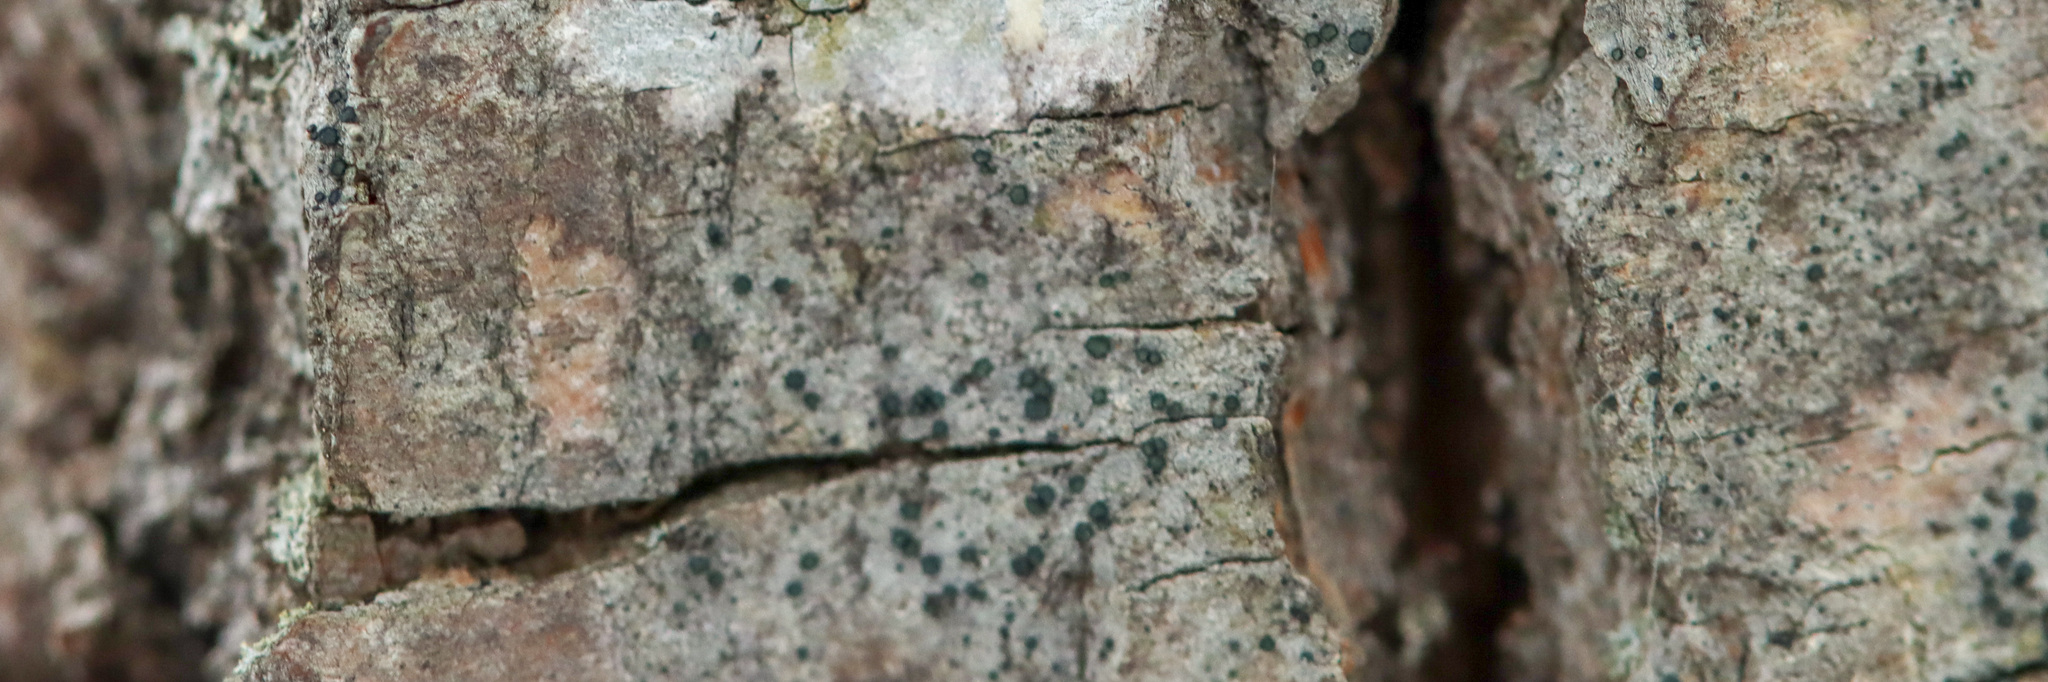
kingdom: Fungi
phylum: Ascomycota
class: Arthoniomycetes
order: Arthoniales
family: Opegraphaceae
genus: Cresponea
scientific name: Cresponea chloroconia
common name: Greenish old-wood lichen
